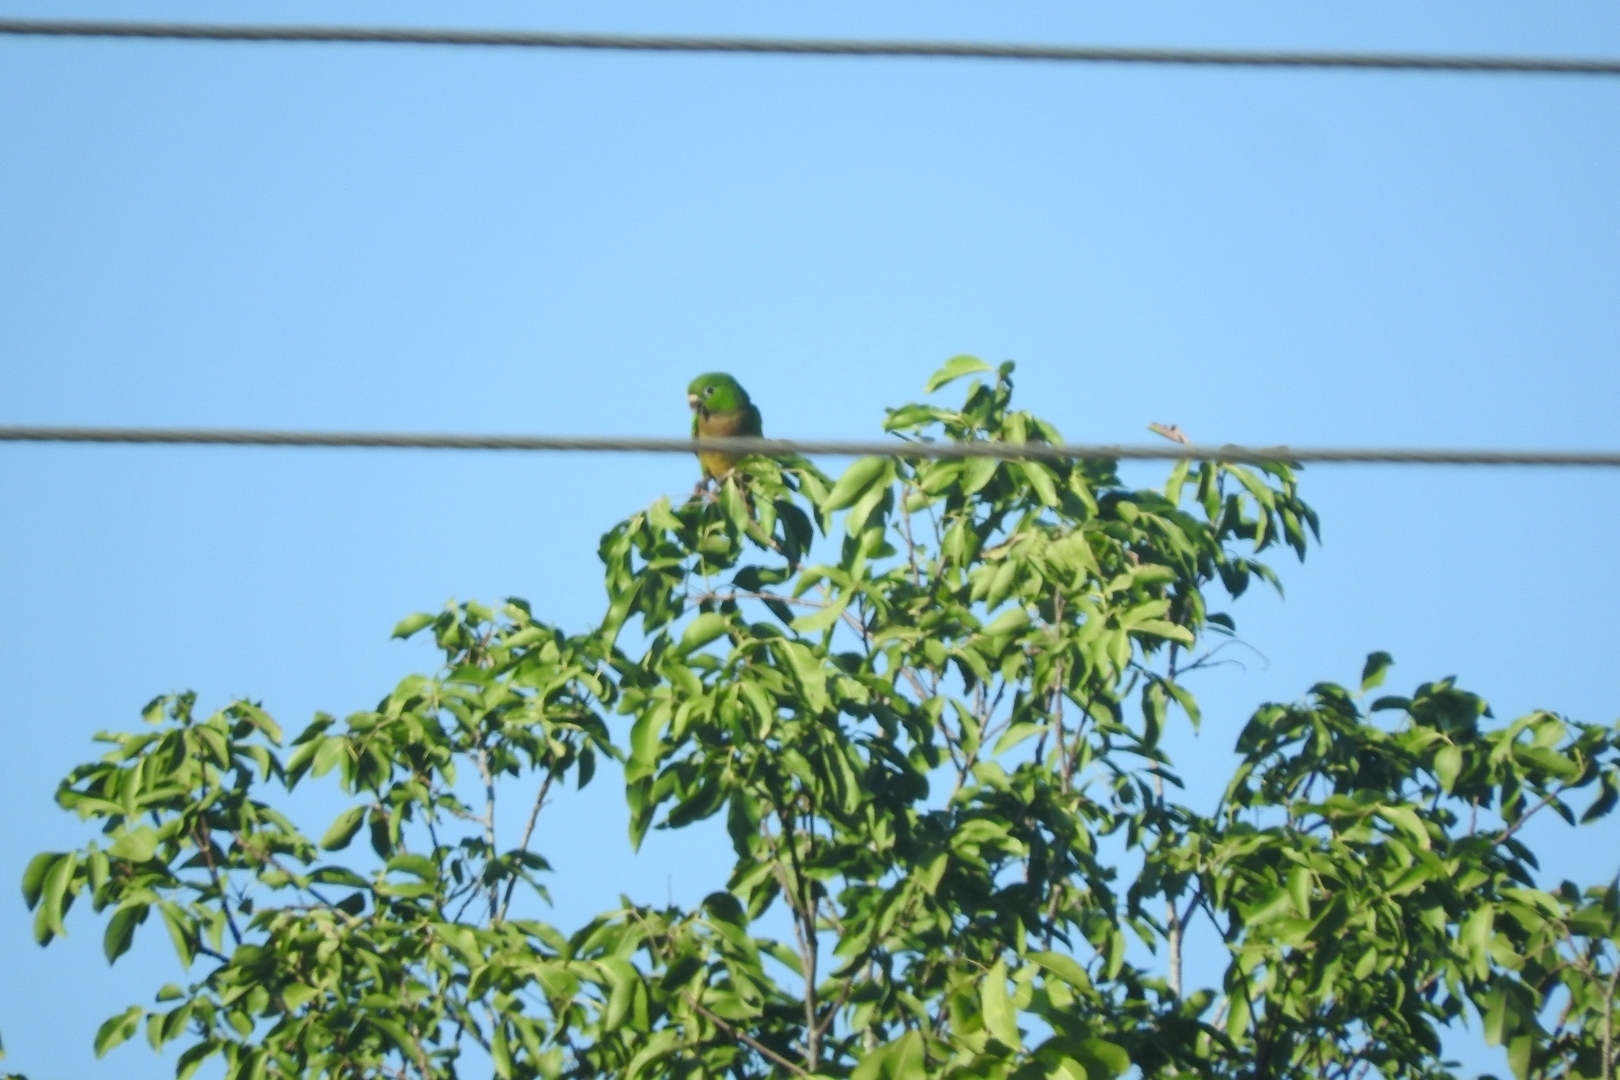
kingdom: Animalia
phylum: Chordata
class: Aves
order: Psittaciformes
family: Psittacidae
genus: Aratinga
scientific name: Aratinga nana
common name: Olive-throated parakeet
